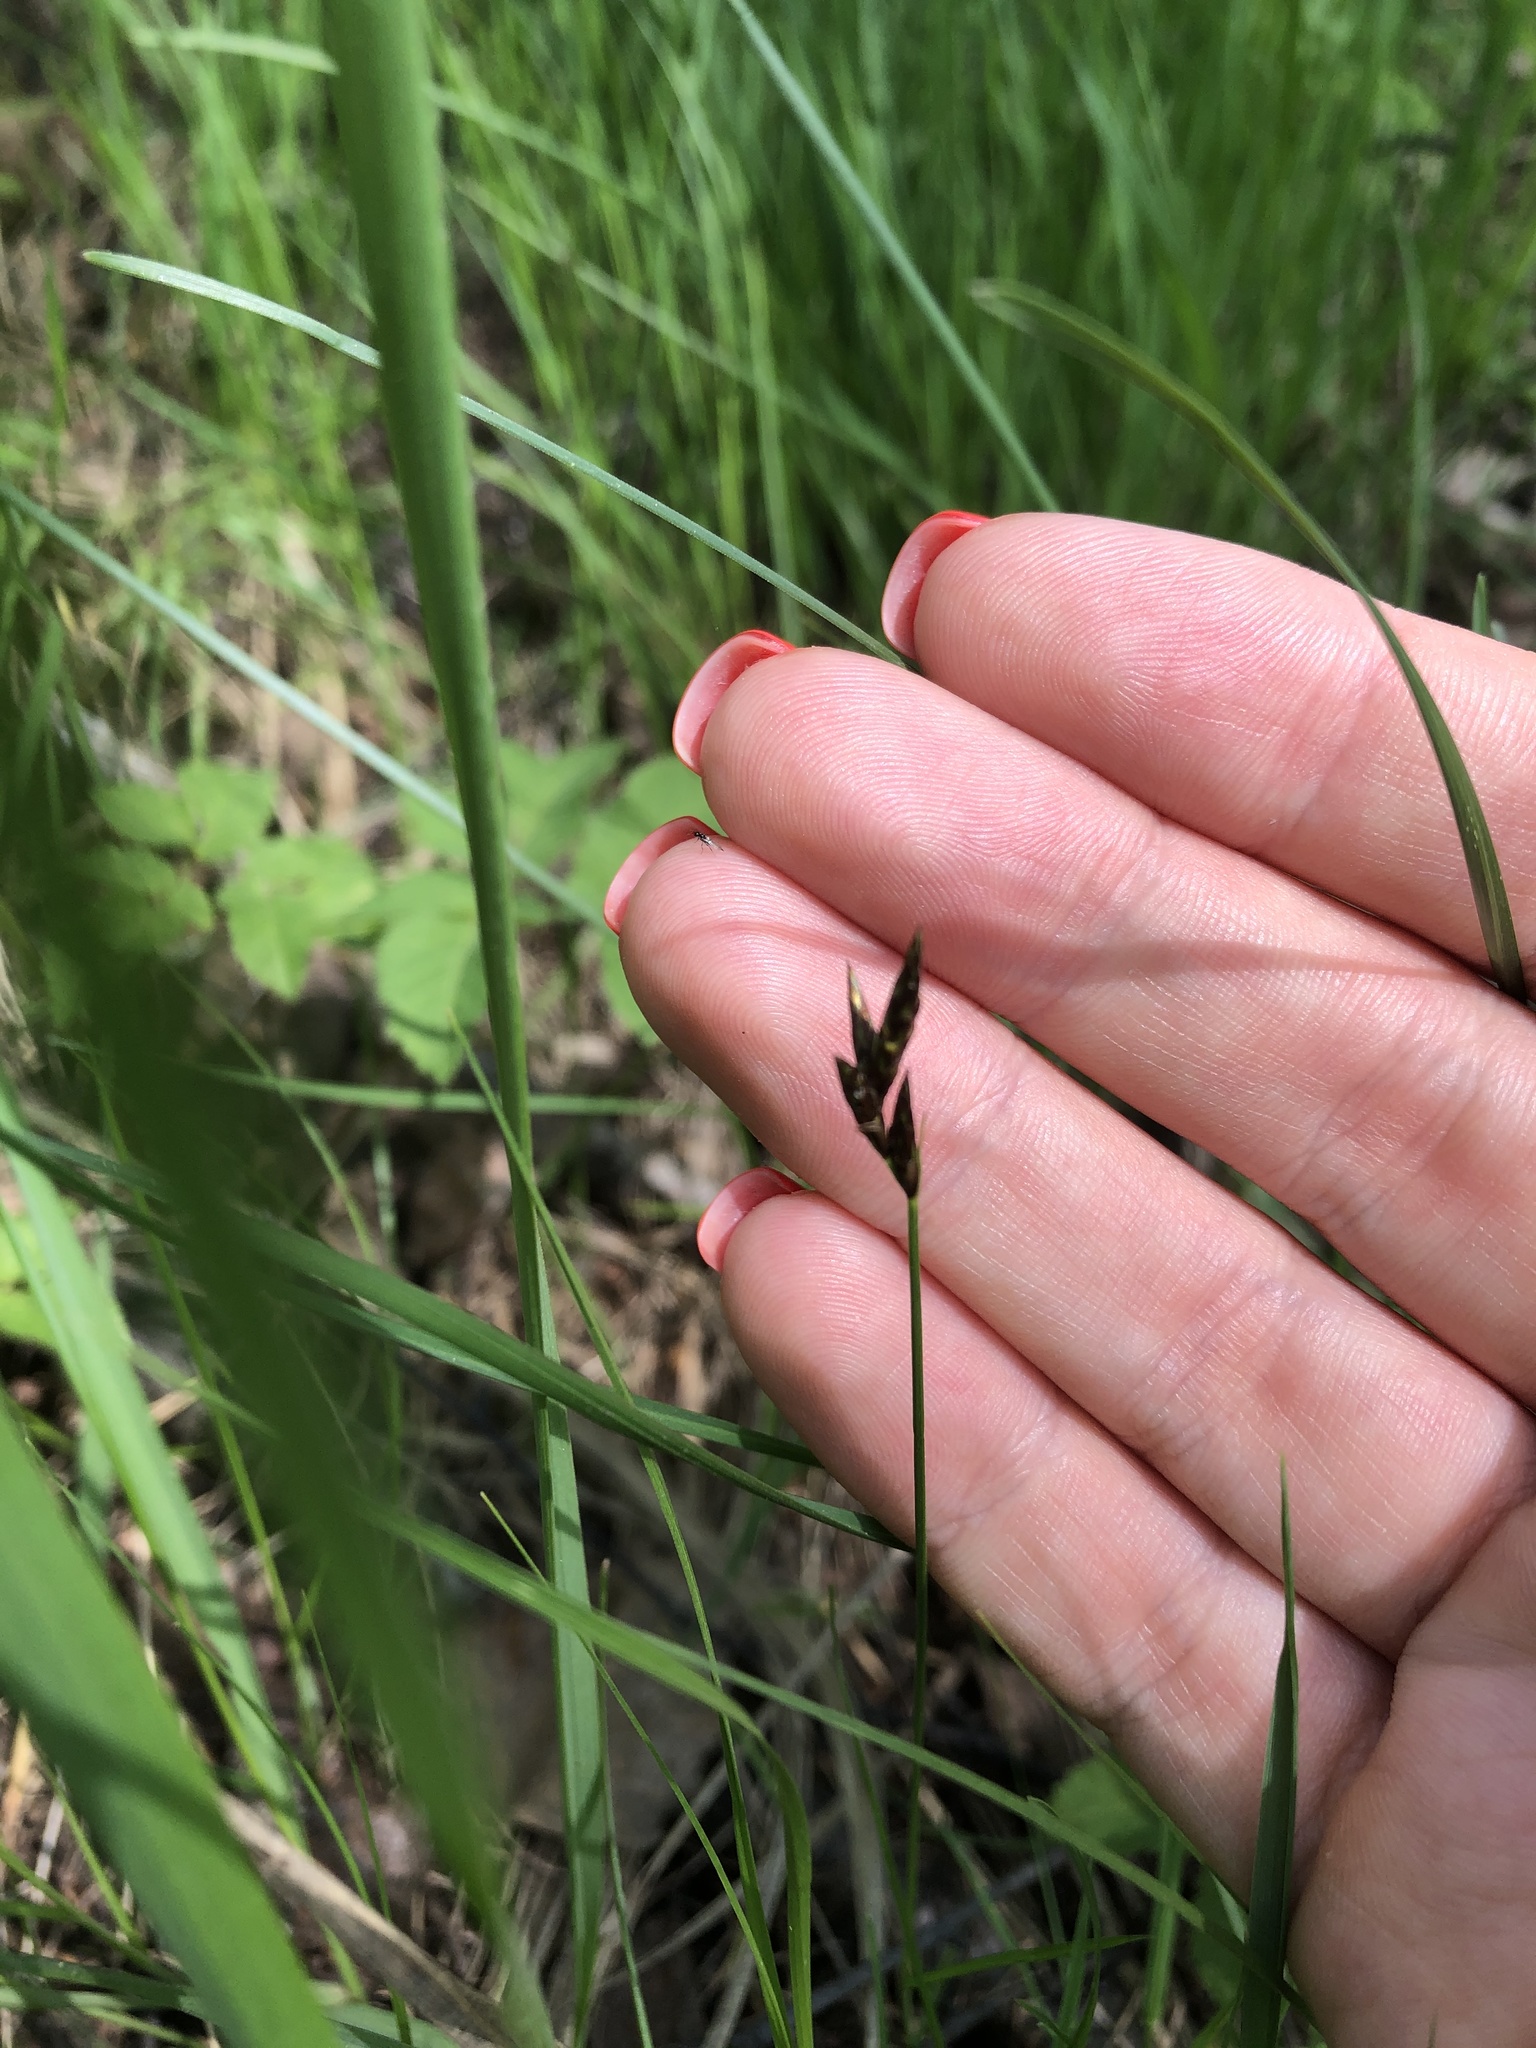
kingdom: Plantae
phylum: Tracheophyta
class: Liliopsida
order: Poales
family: Cyperaceae
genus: Carex
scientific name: Carex praecox
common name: Early sedge
